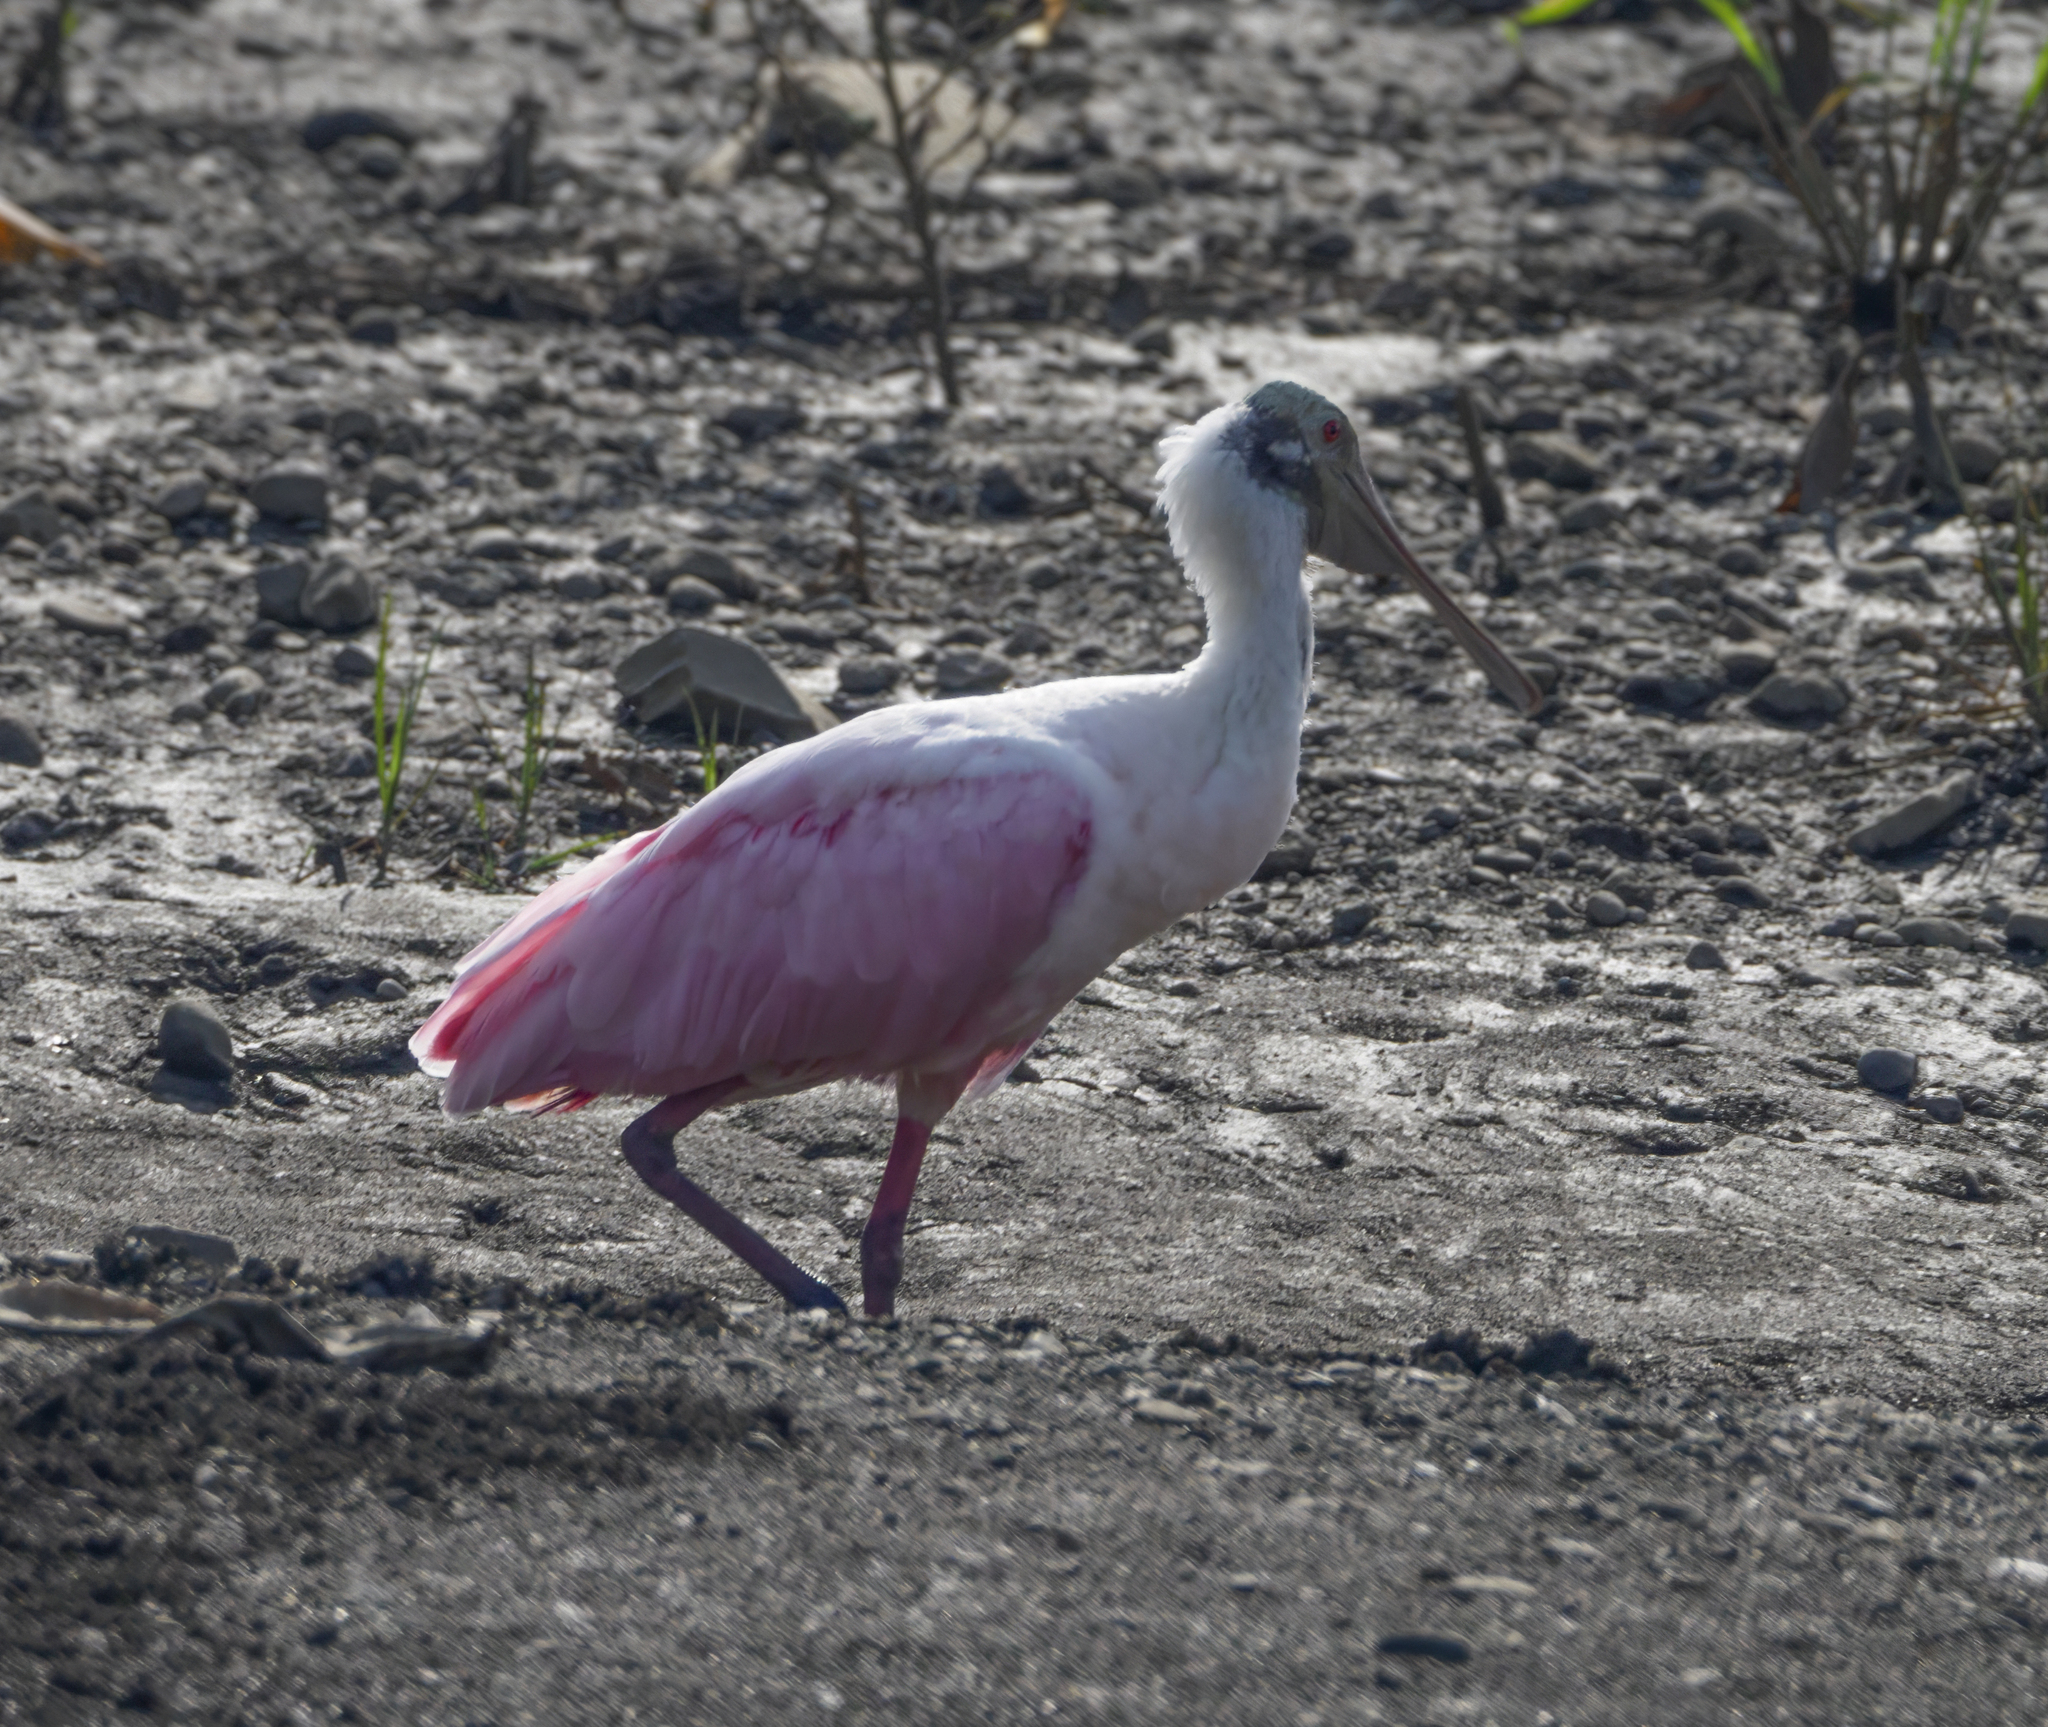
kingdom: Animalia
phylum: Chordata
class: Aves
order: Pelecaniformes
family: Threskiornithidae
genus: Platalea
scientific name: Platalea ajaja
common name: Roseate spoonbill
